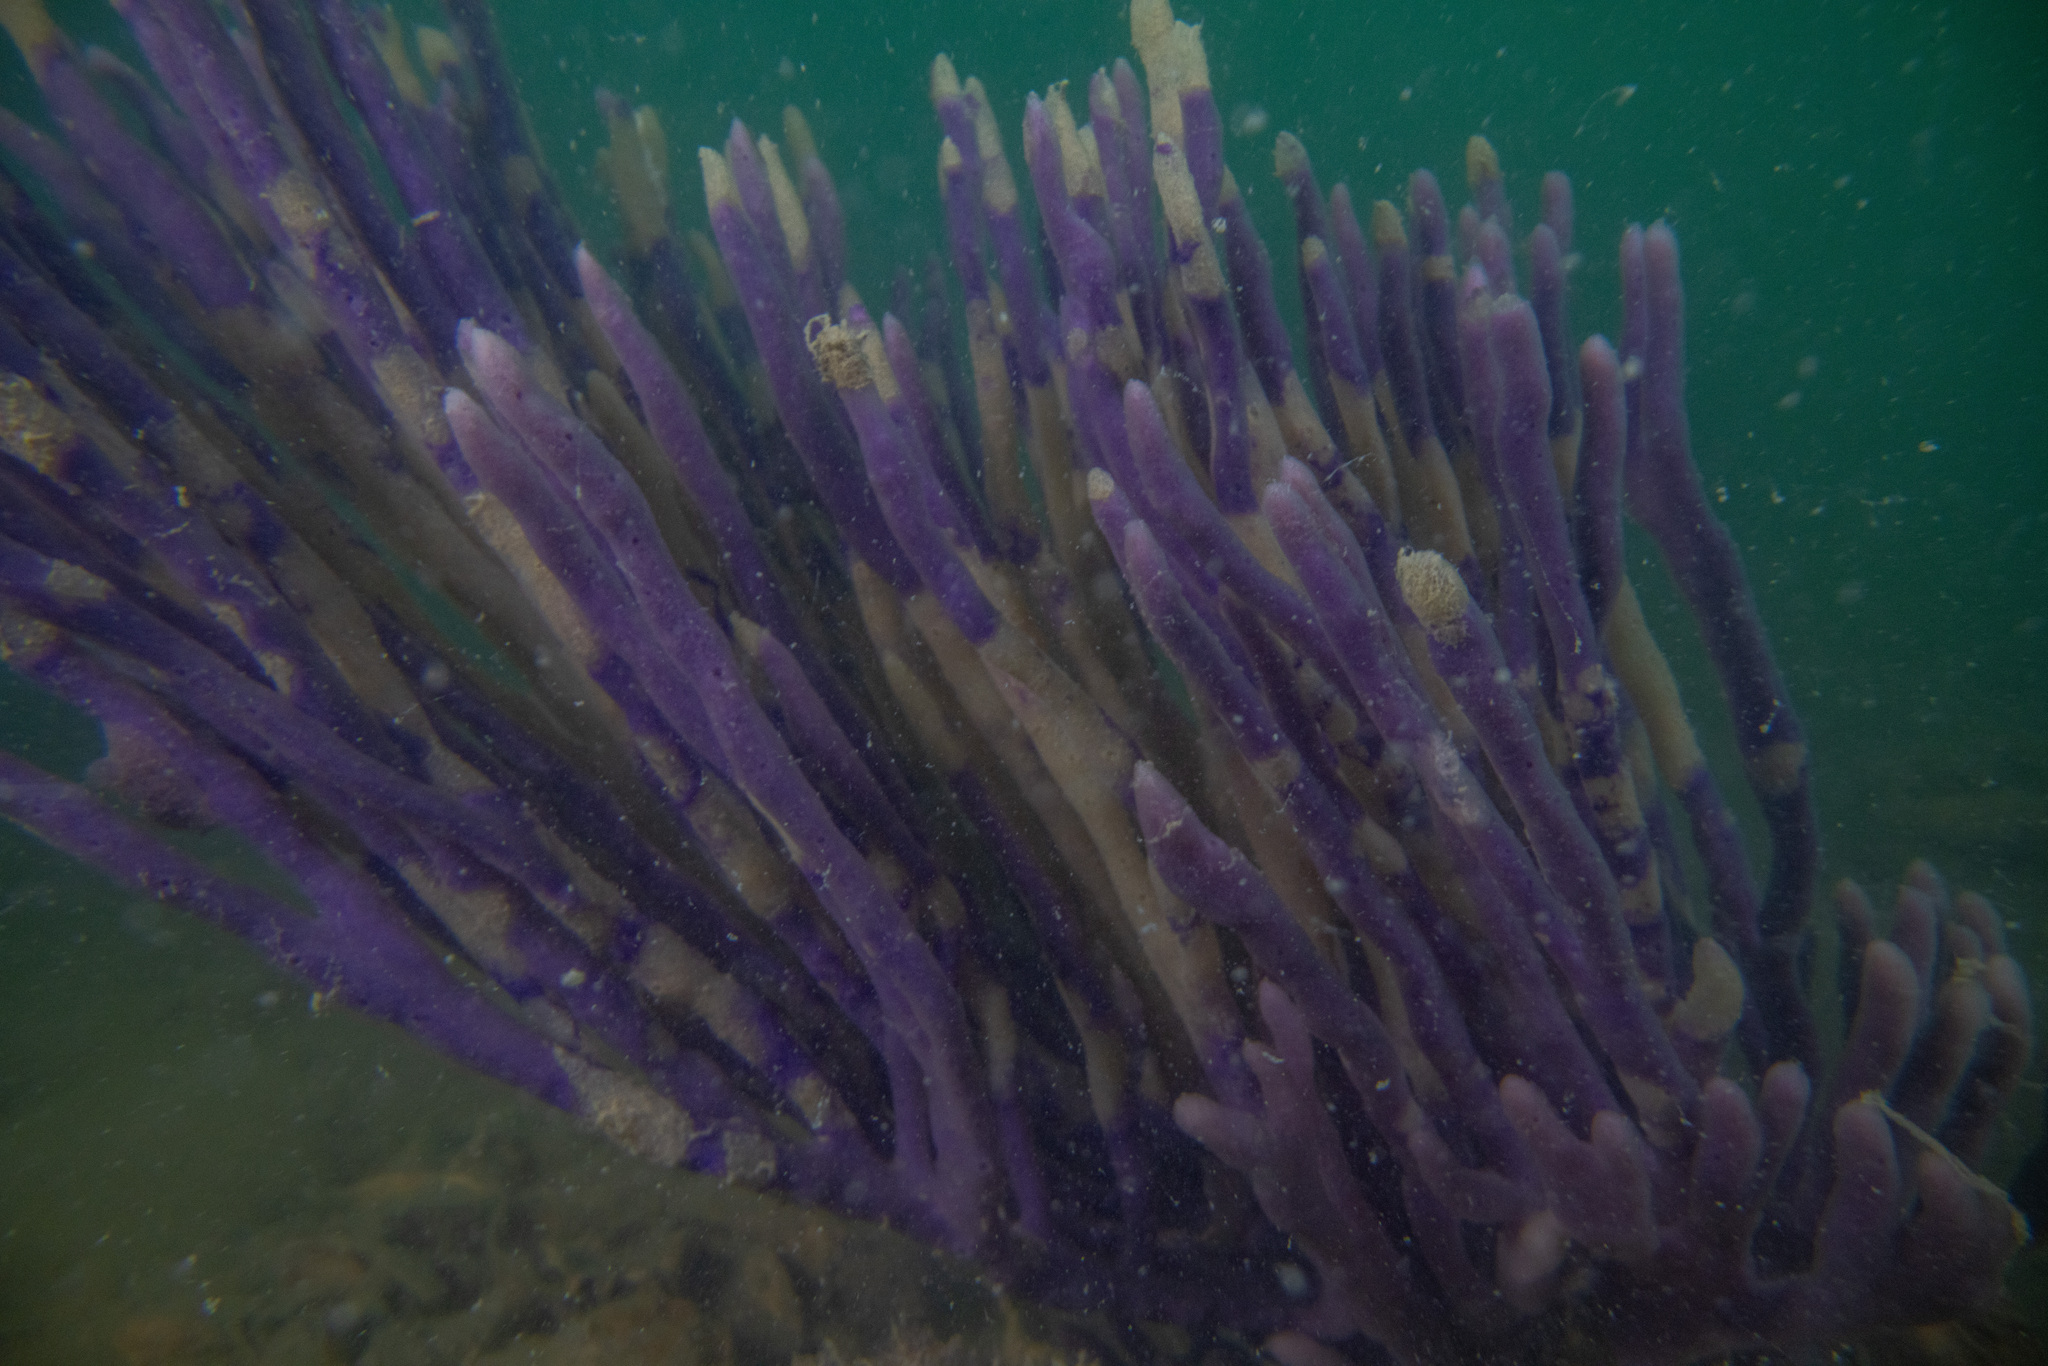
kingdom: Animalia
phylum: Porifera
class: Demospongiae
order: Haplosclerida
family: Callyspongiidae
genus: Callyspongia
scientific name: Callyspongia nuda
